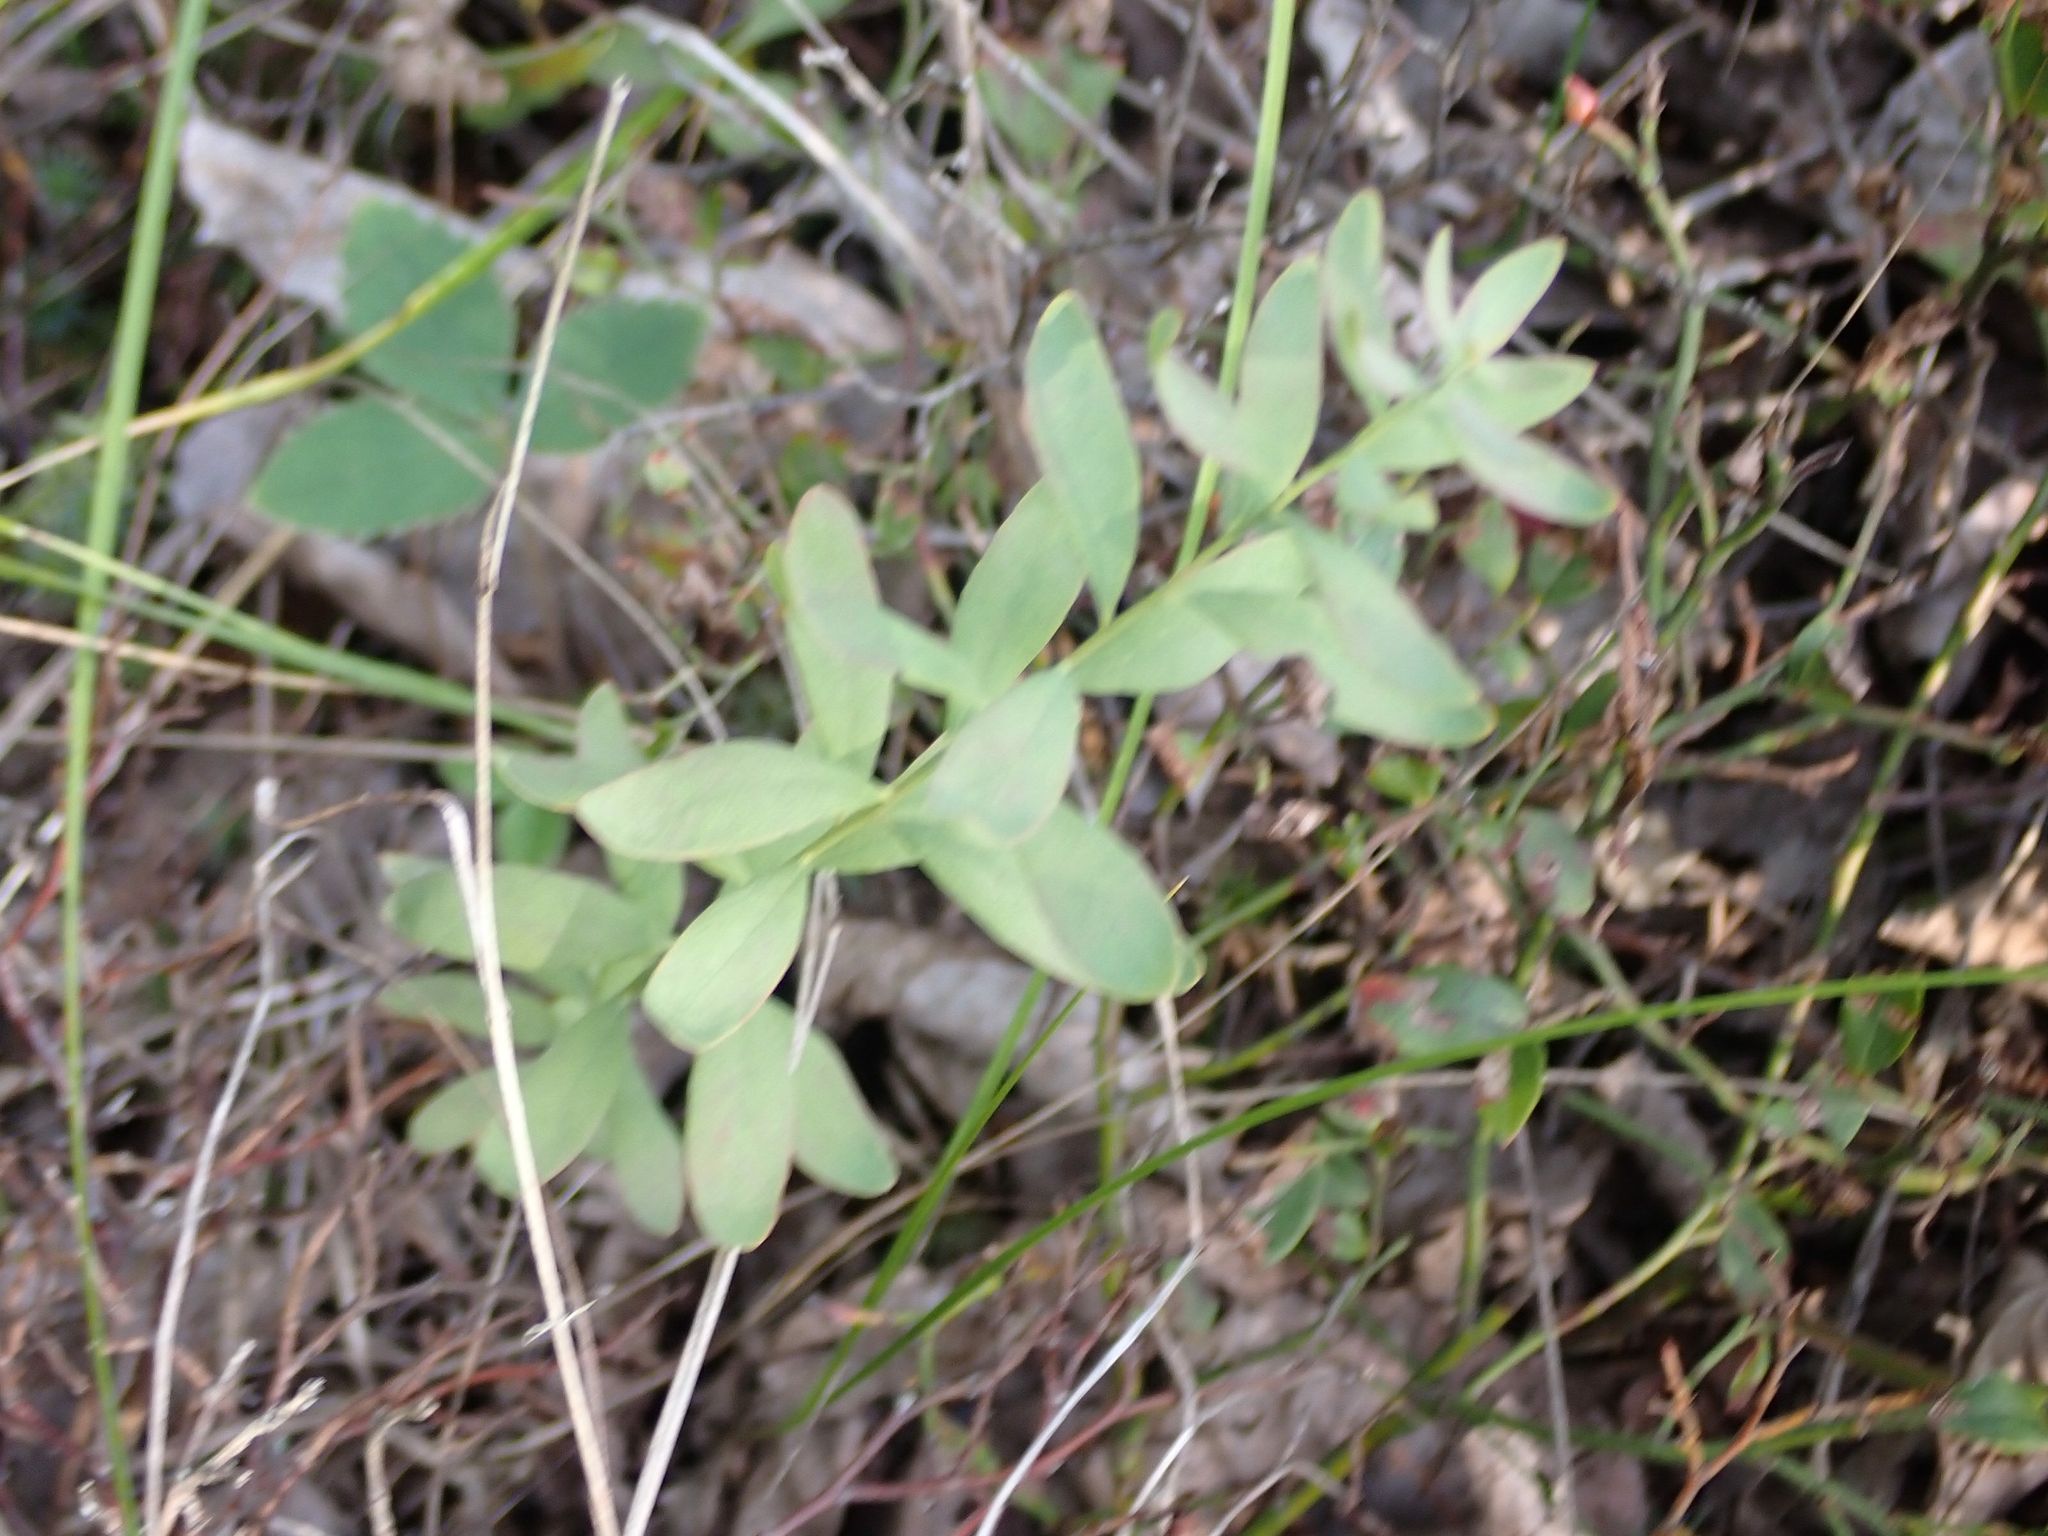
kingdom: Plantae
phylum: Tracheophyta
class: Magnoliopsida
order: Santalales
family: Comandraceae
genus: Comandra
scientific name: Comandra umbellata
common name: Bastard toadflax
